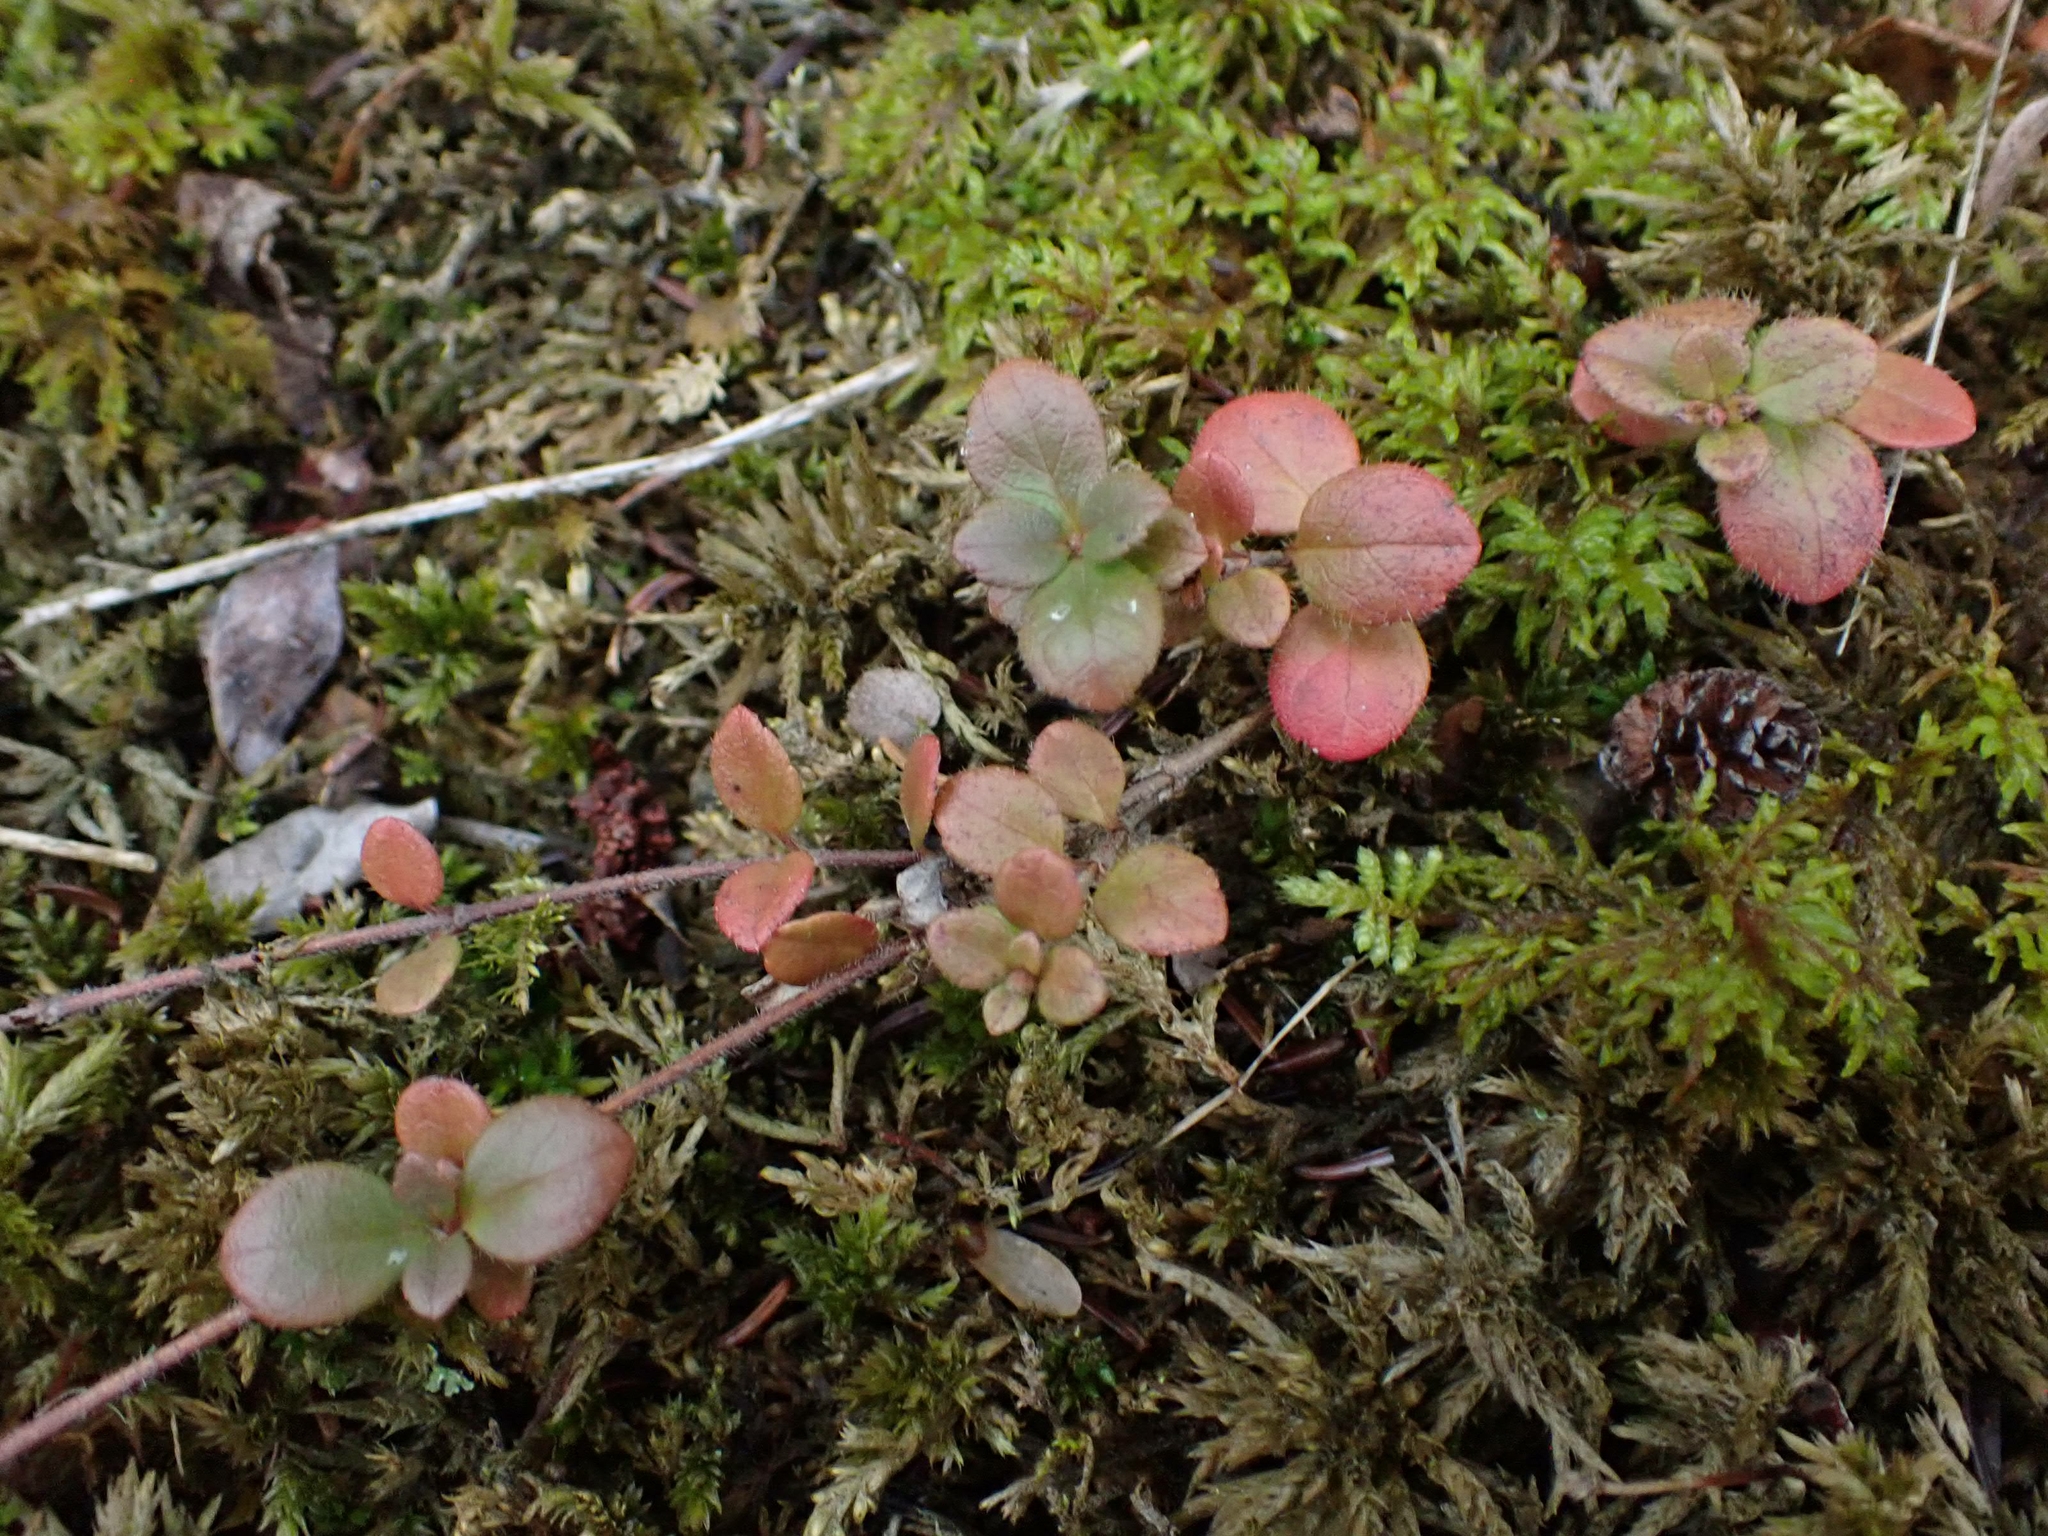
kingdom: Plantae
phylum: Tracheophyta
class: Magnoliopsida
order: Dipsacales
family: Caprifoliaceae
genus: Linnaea
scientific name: Linnaea borealis
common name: Twinflower
